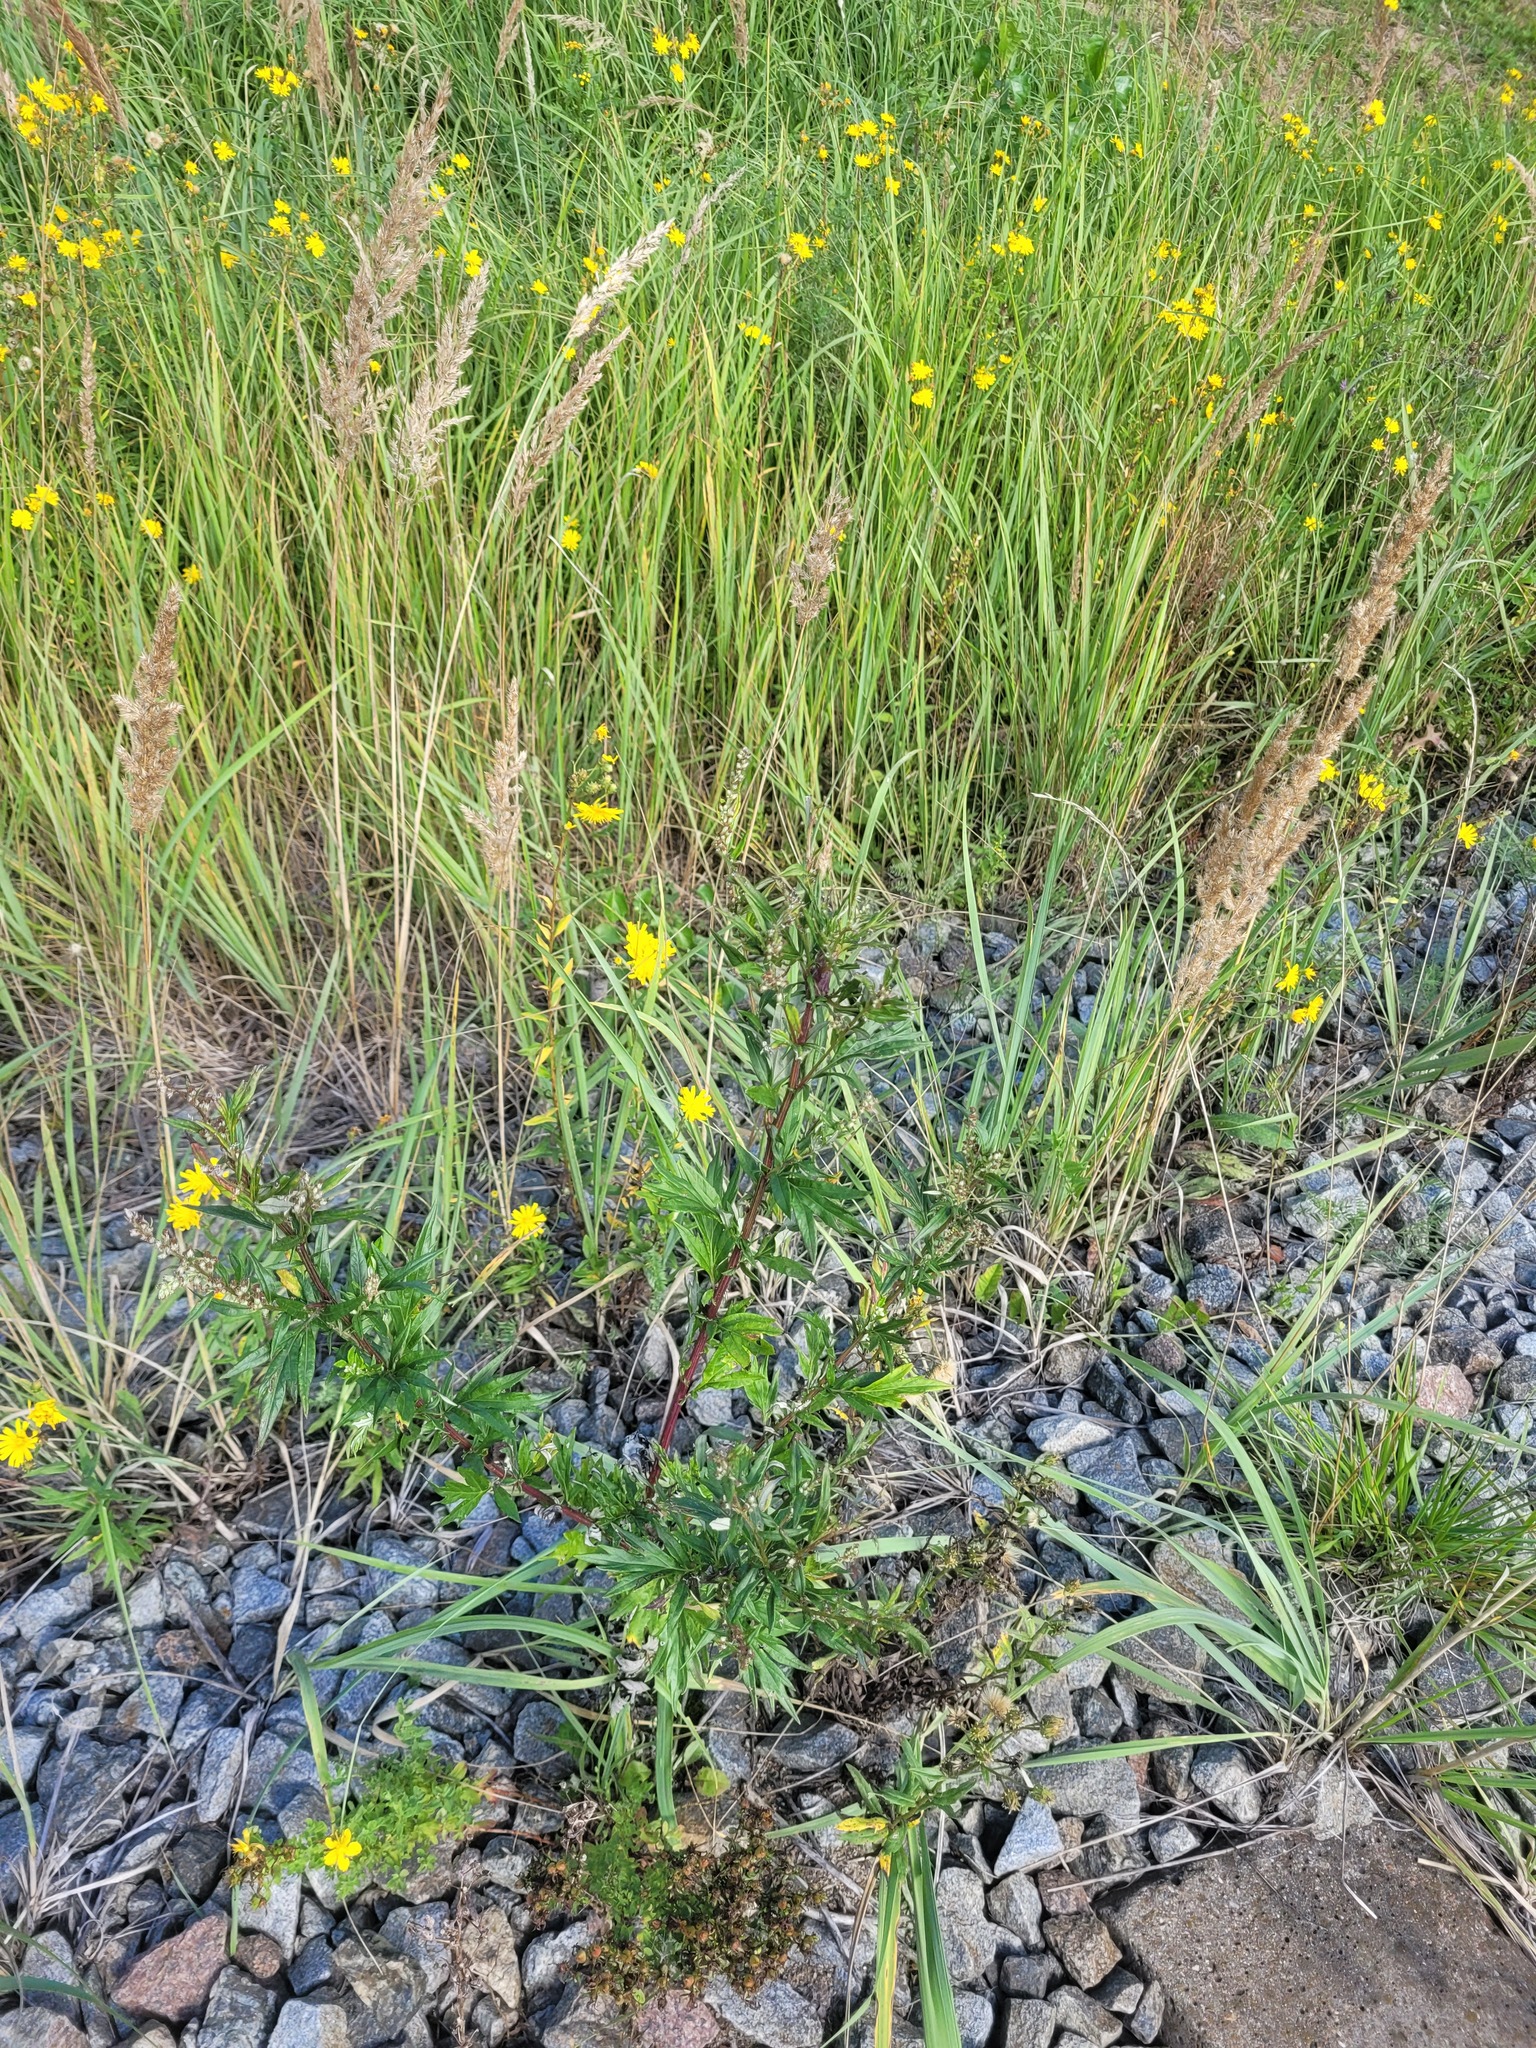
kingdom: Plantae
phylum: Tracheophyta
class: Magnoliopsida
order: Asterales
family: Asteraceae
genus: Artemisia
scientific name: Artemisia vulgaris
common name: Mugwort
